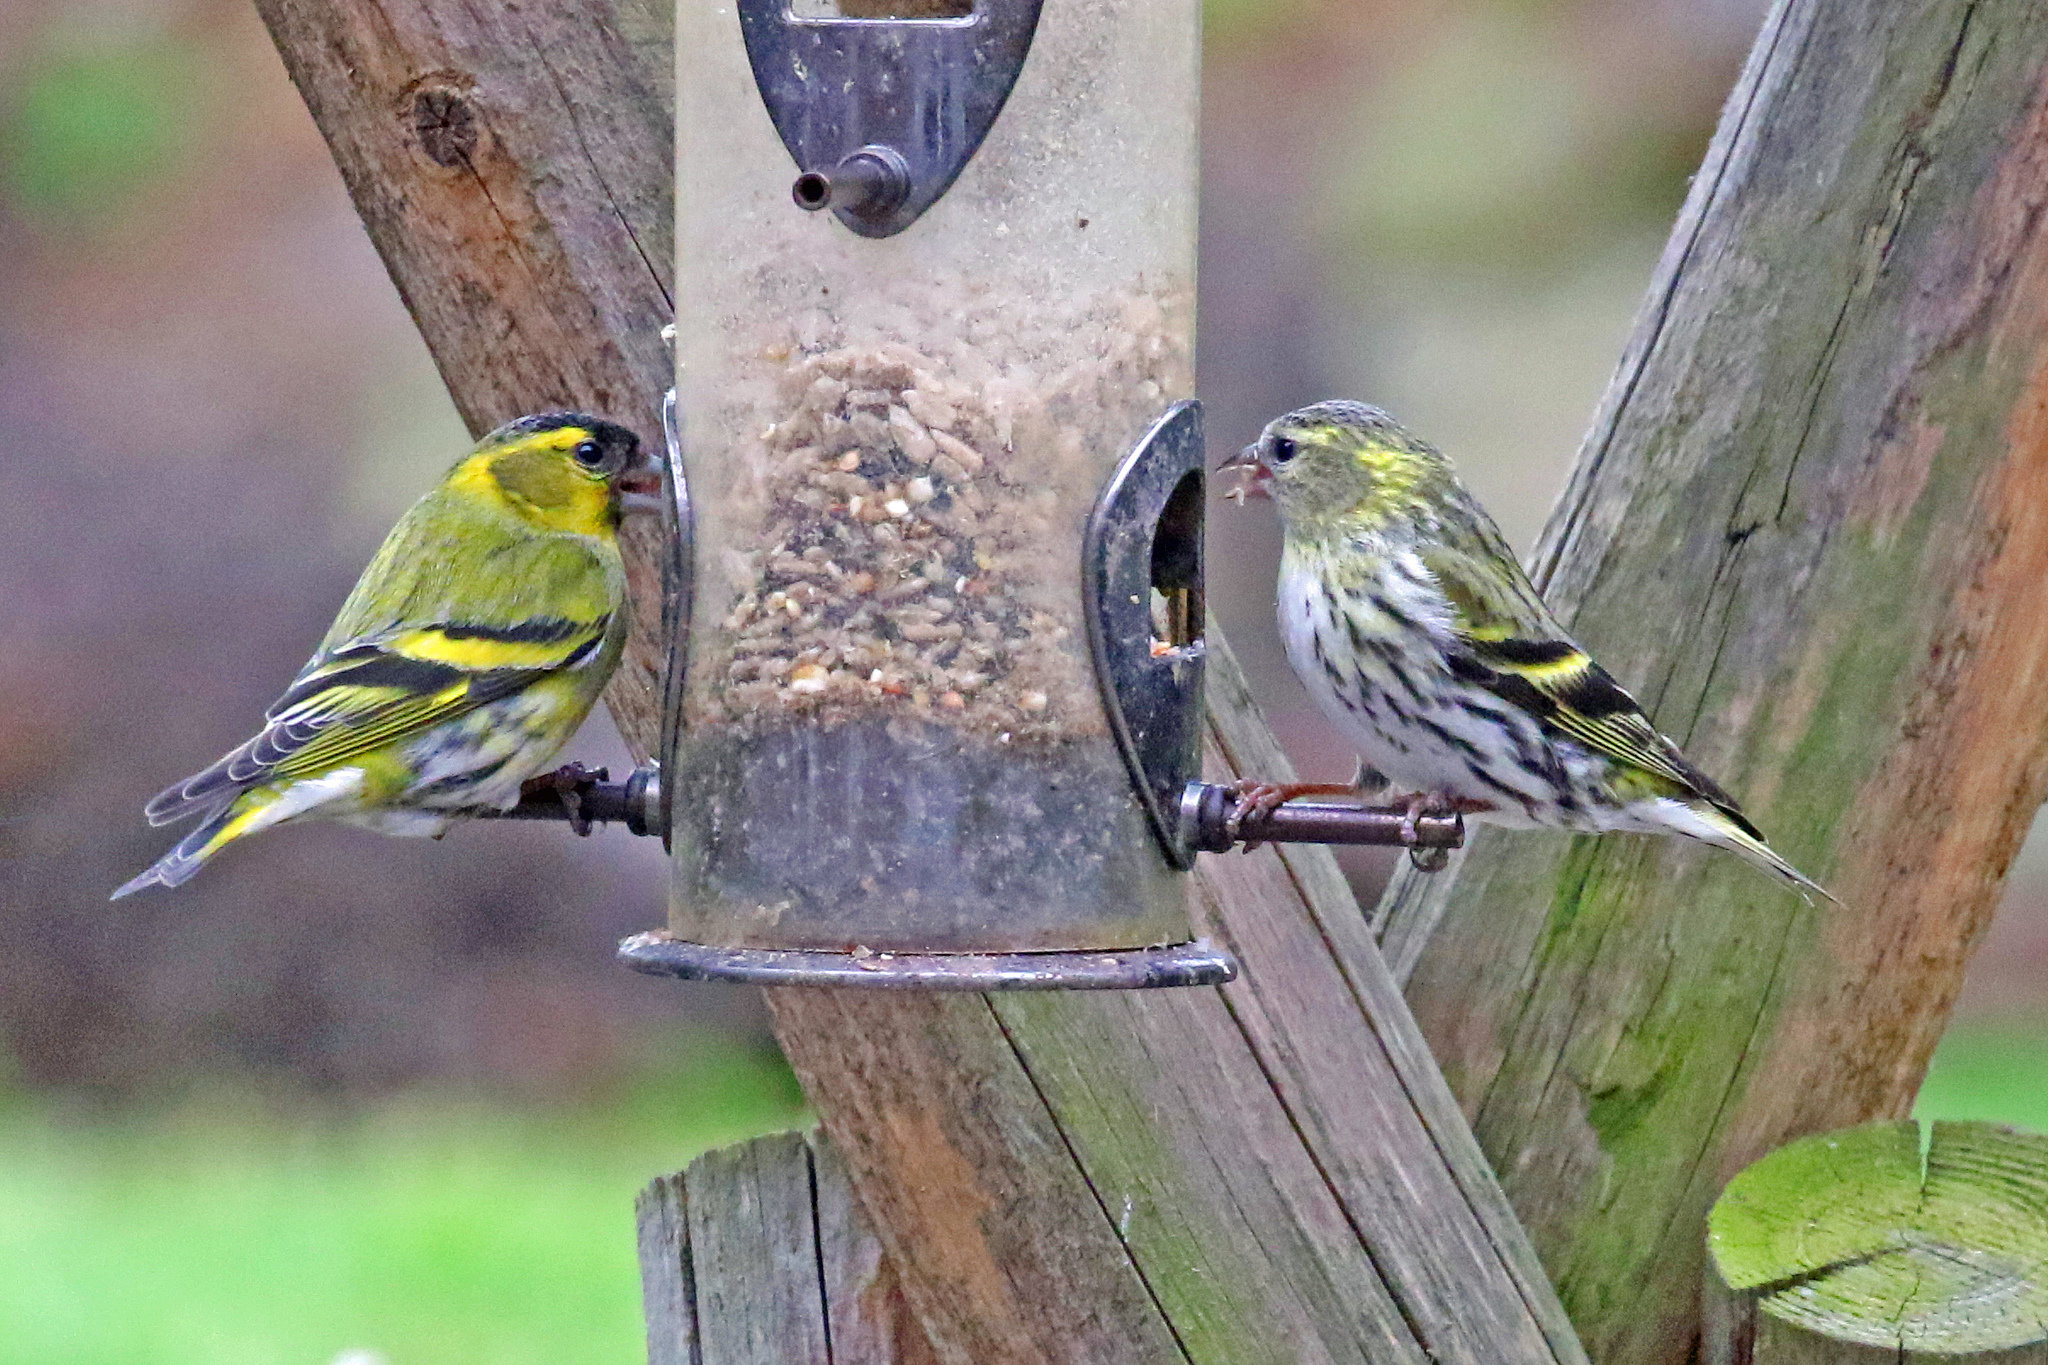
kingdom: Animalia
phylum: Chordata
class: Aves
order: Passeriformes
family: Fringillidae
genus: Spinus
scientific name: Spinus spinus
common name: Eurasian siskin
